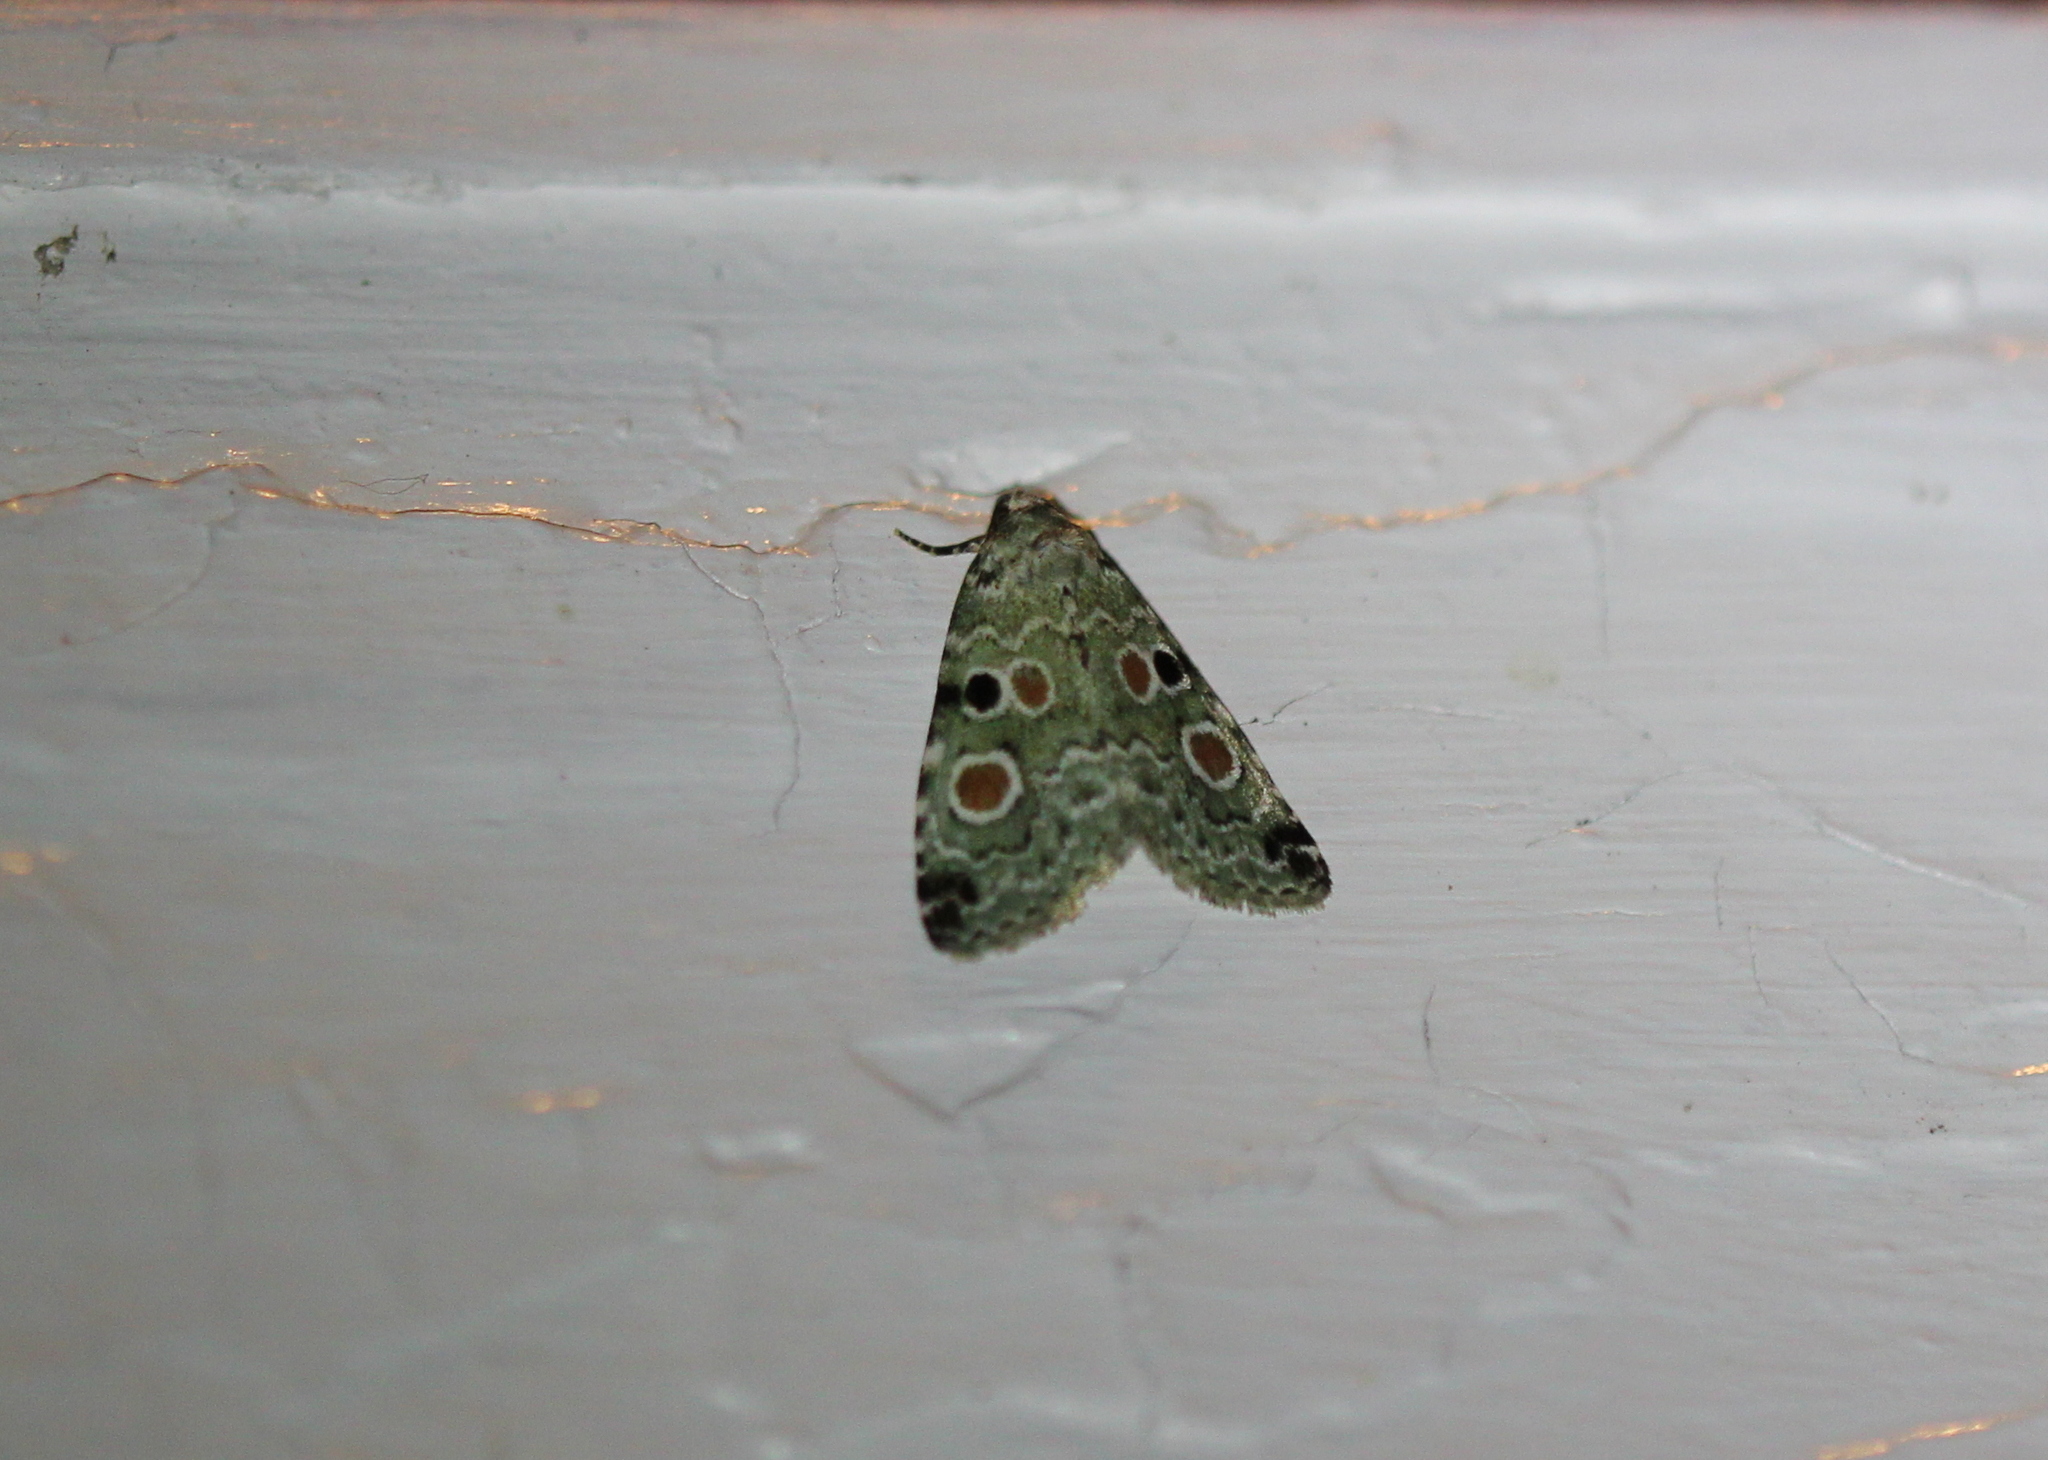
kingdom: Animalia
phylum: Arthropoda
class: Insecta
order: Lepidoptera
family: Noctuidae
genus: Maliattha
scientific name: Maliattha concinnimacula
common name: Red-spotted glyph
